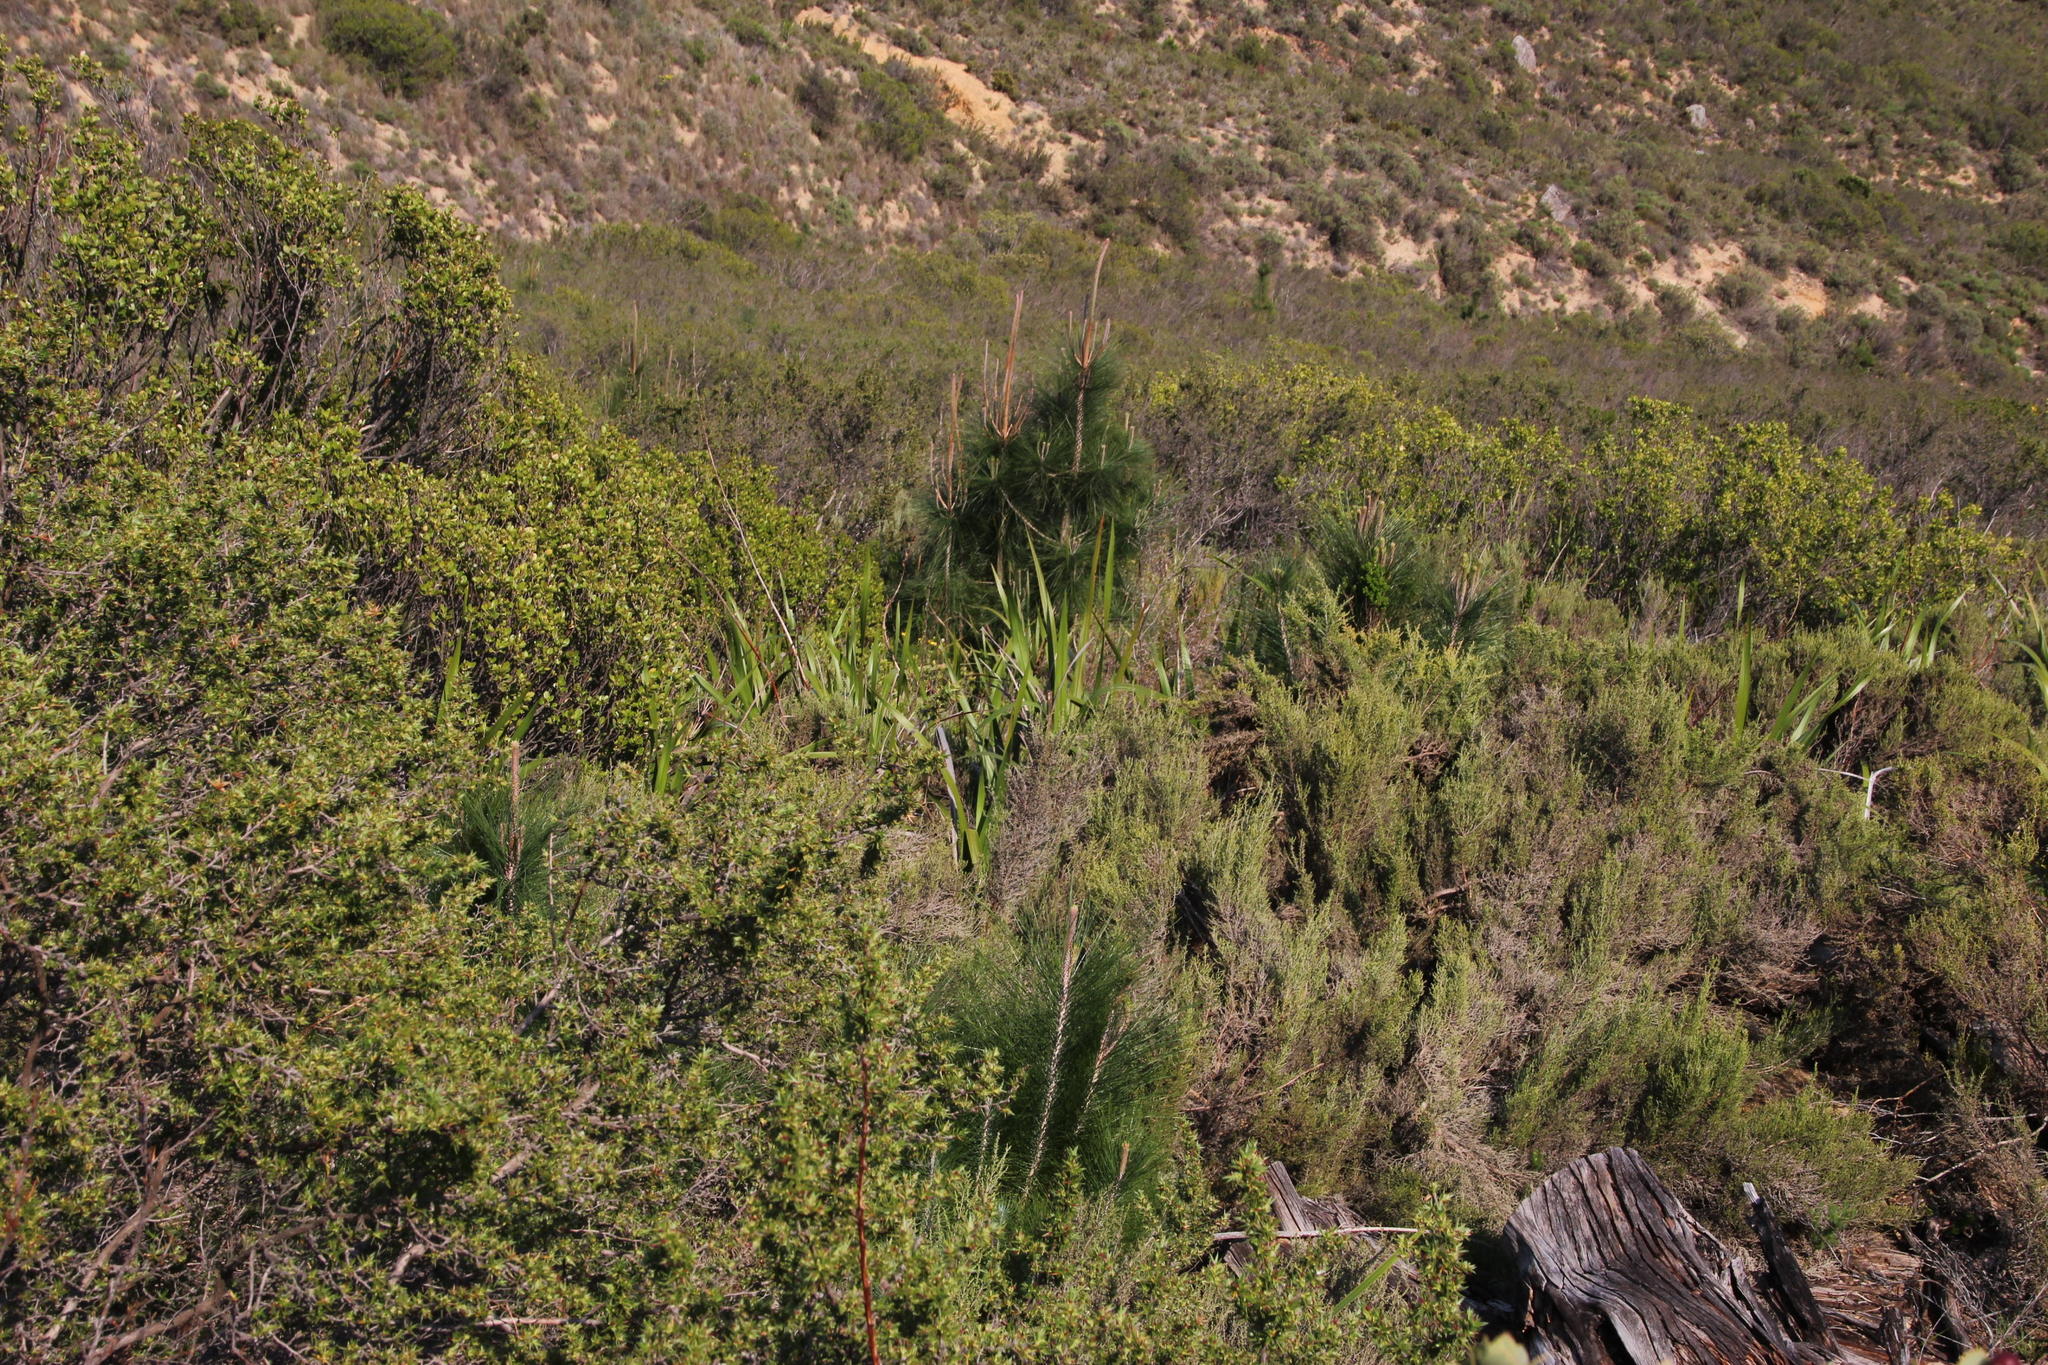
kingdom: Plantae
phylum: Tracheophyta
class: Pinopsida
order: Pinales
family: Pinaceae
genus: Pinus
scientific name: Pinus canariensis
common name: Canary islands pine
